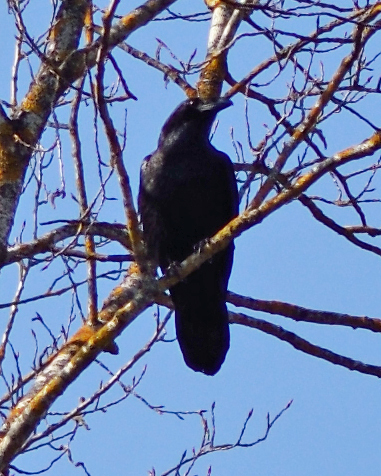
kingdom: Animalia
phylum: Chordata
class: Aves
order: Passeriformes
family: Corvidae
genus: Corvus
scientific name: Corvus corax
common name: Common raven
